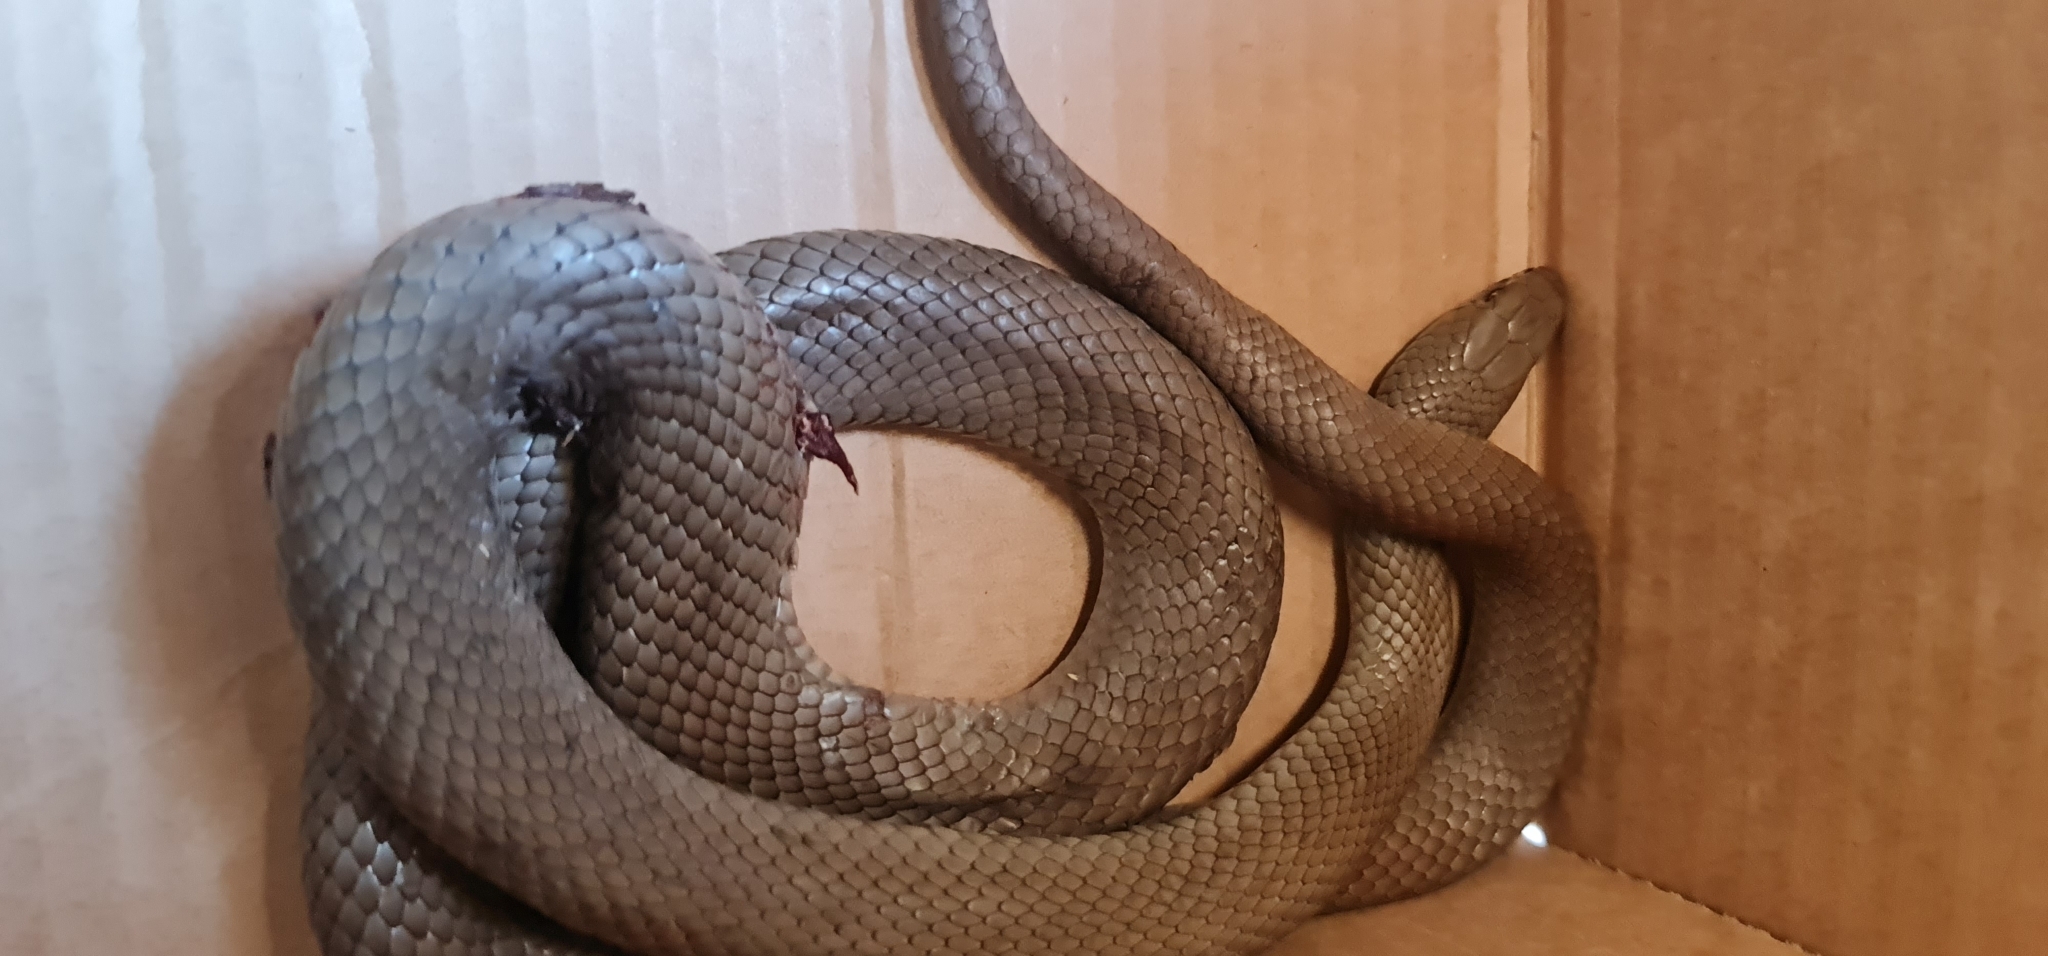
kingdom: Animalia
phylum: Chordata
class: Squamata
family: Elapidae
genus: Pseudonaja
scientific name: Pseudonaja textilis
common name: Eastern brown snake
